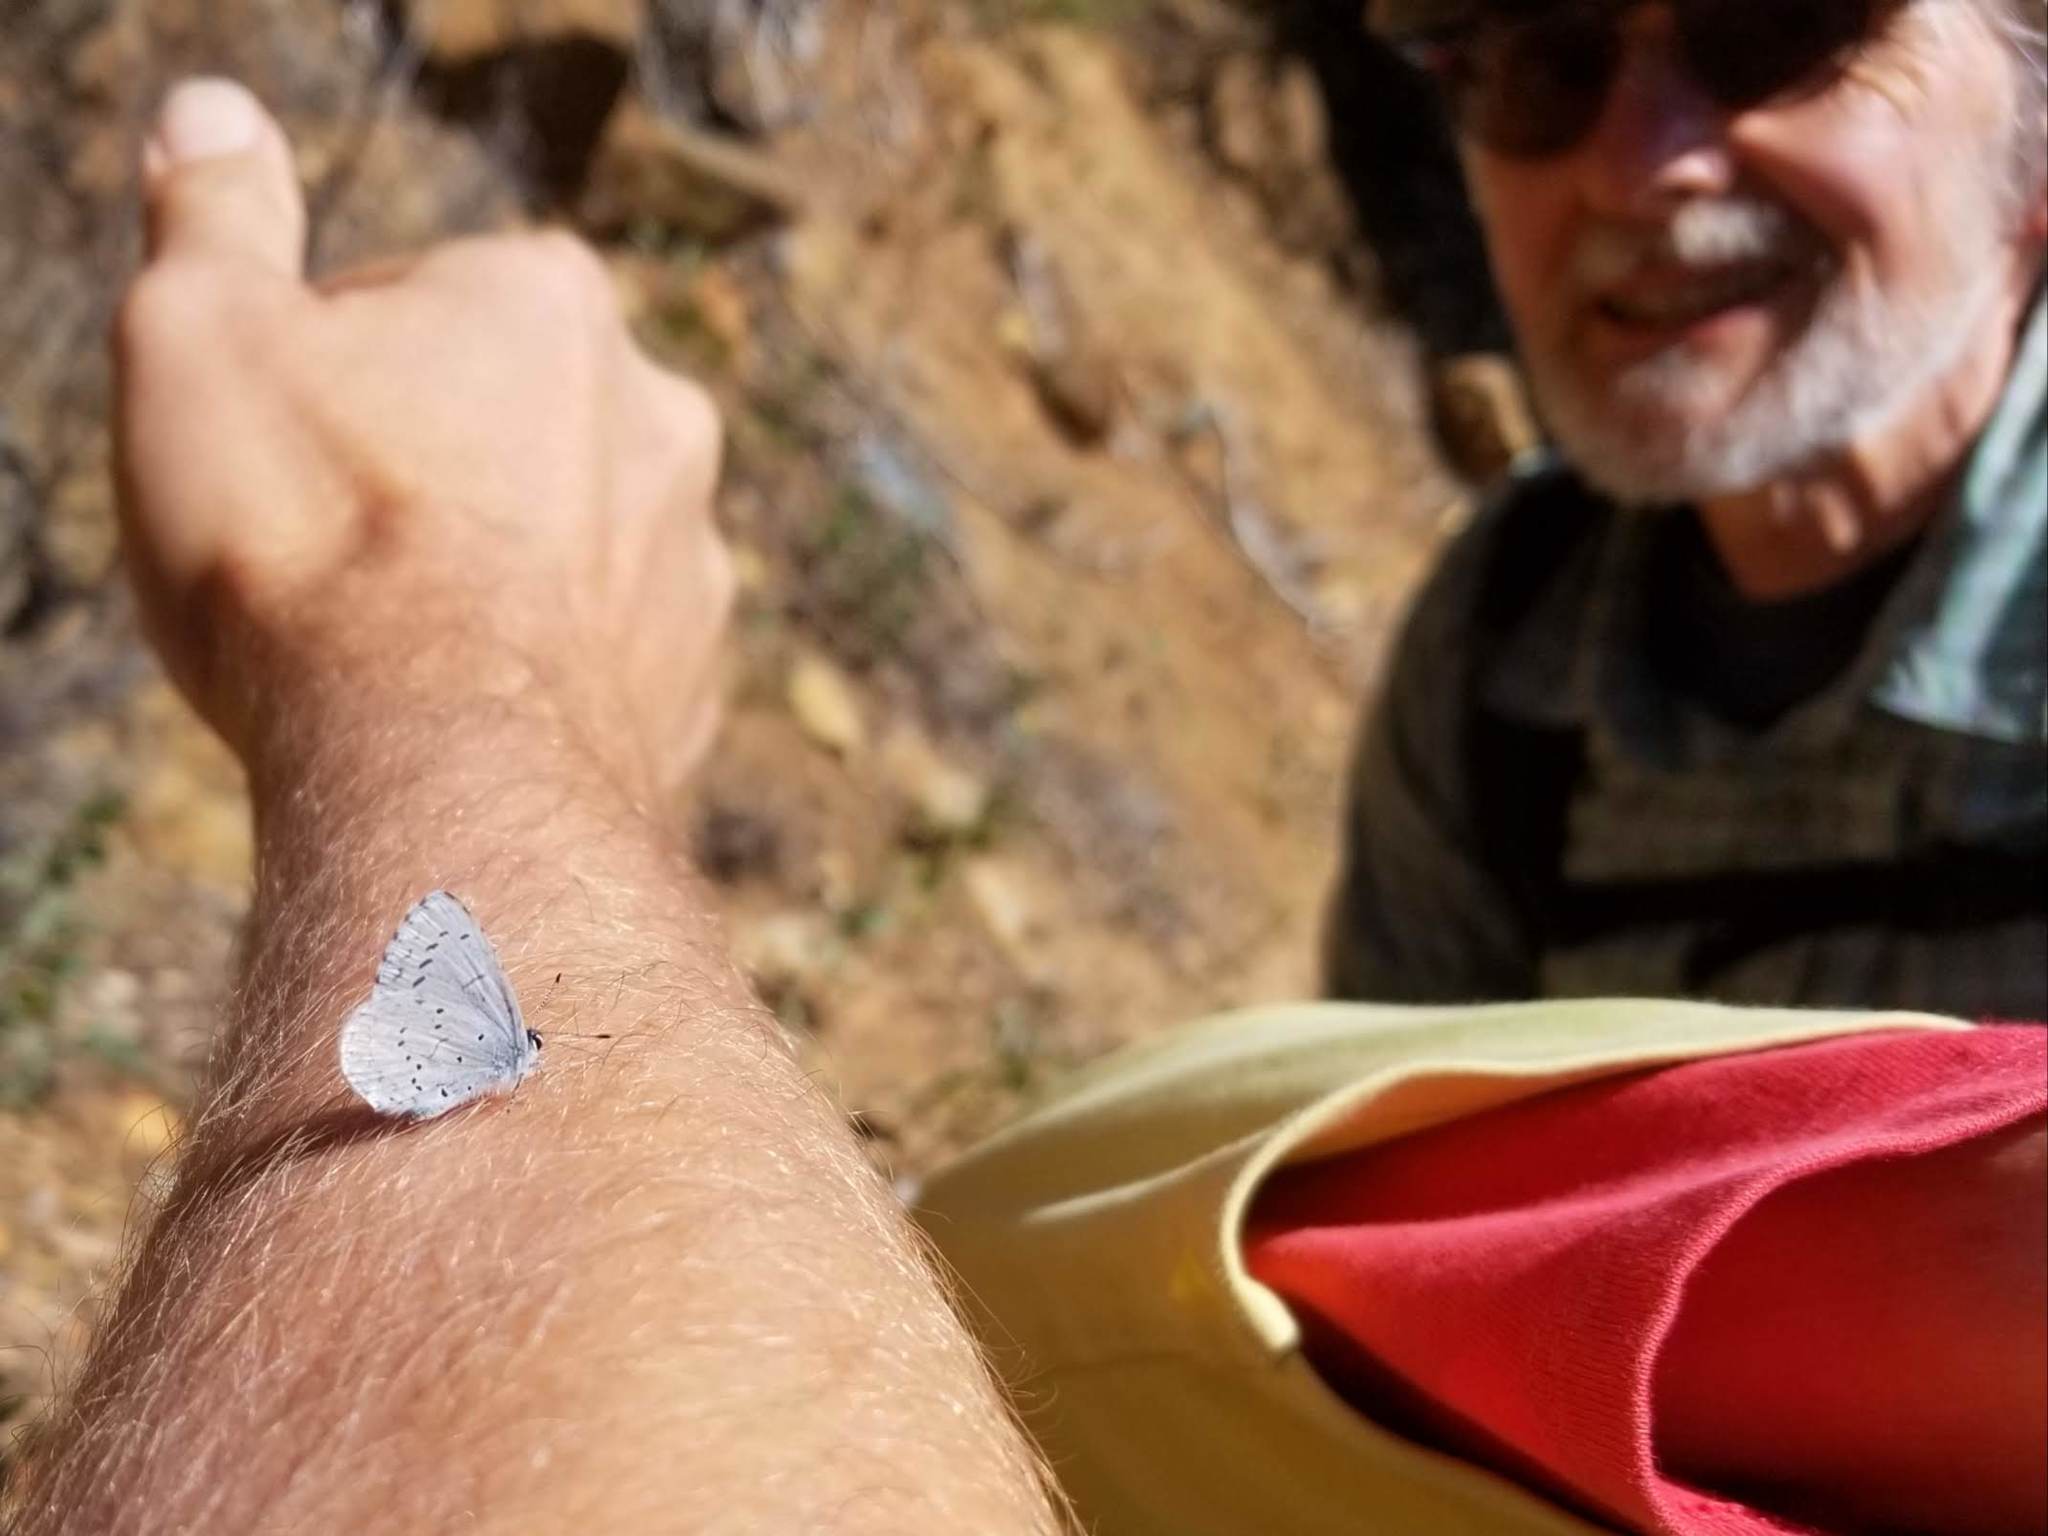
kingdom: Animalia
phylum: Arthropoda
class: Insecta
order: Lepidoptera
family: Lycaenidae
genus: Celastrina
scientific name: Celastrina ladon
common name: Spring azure
